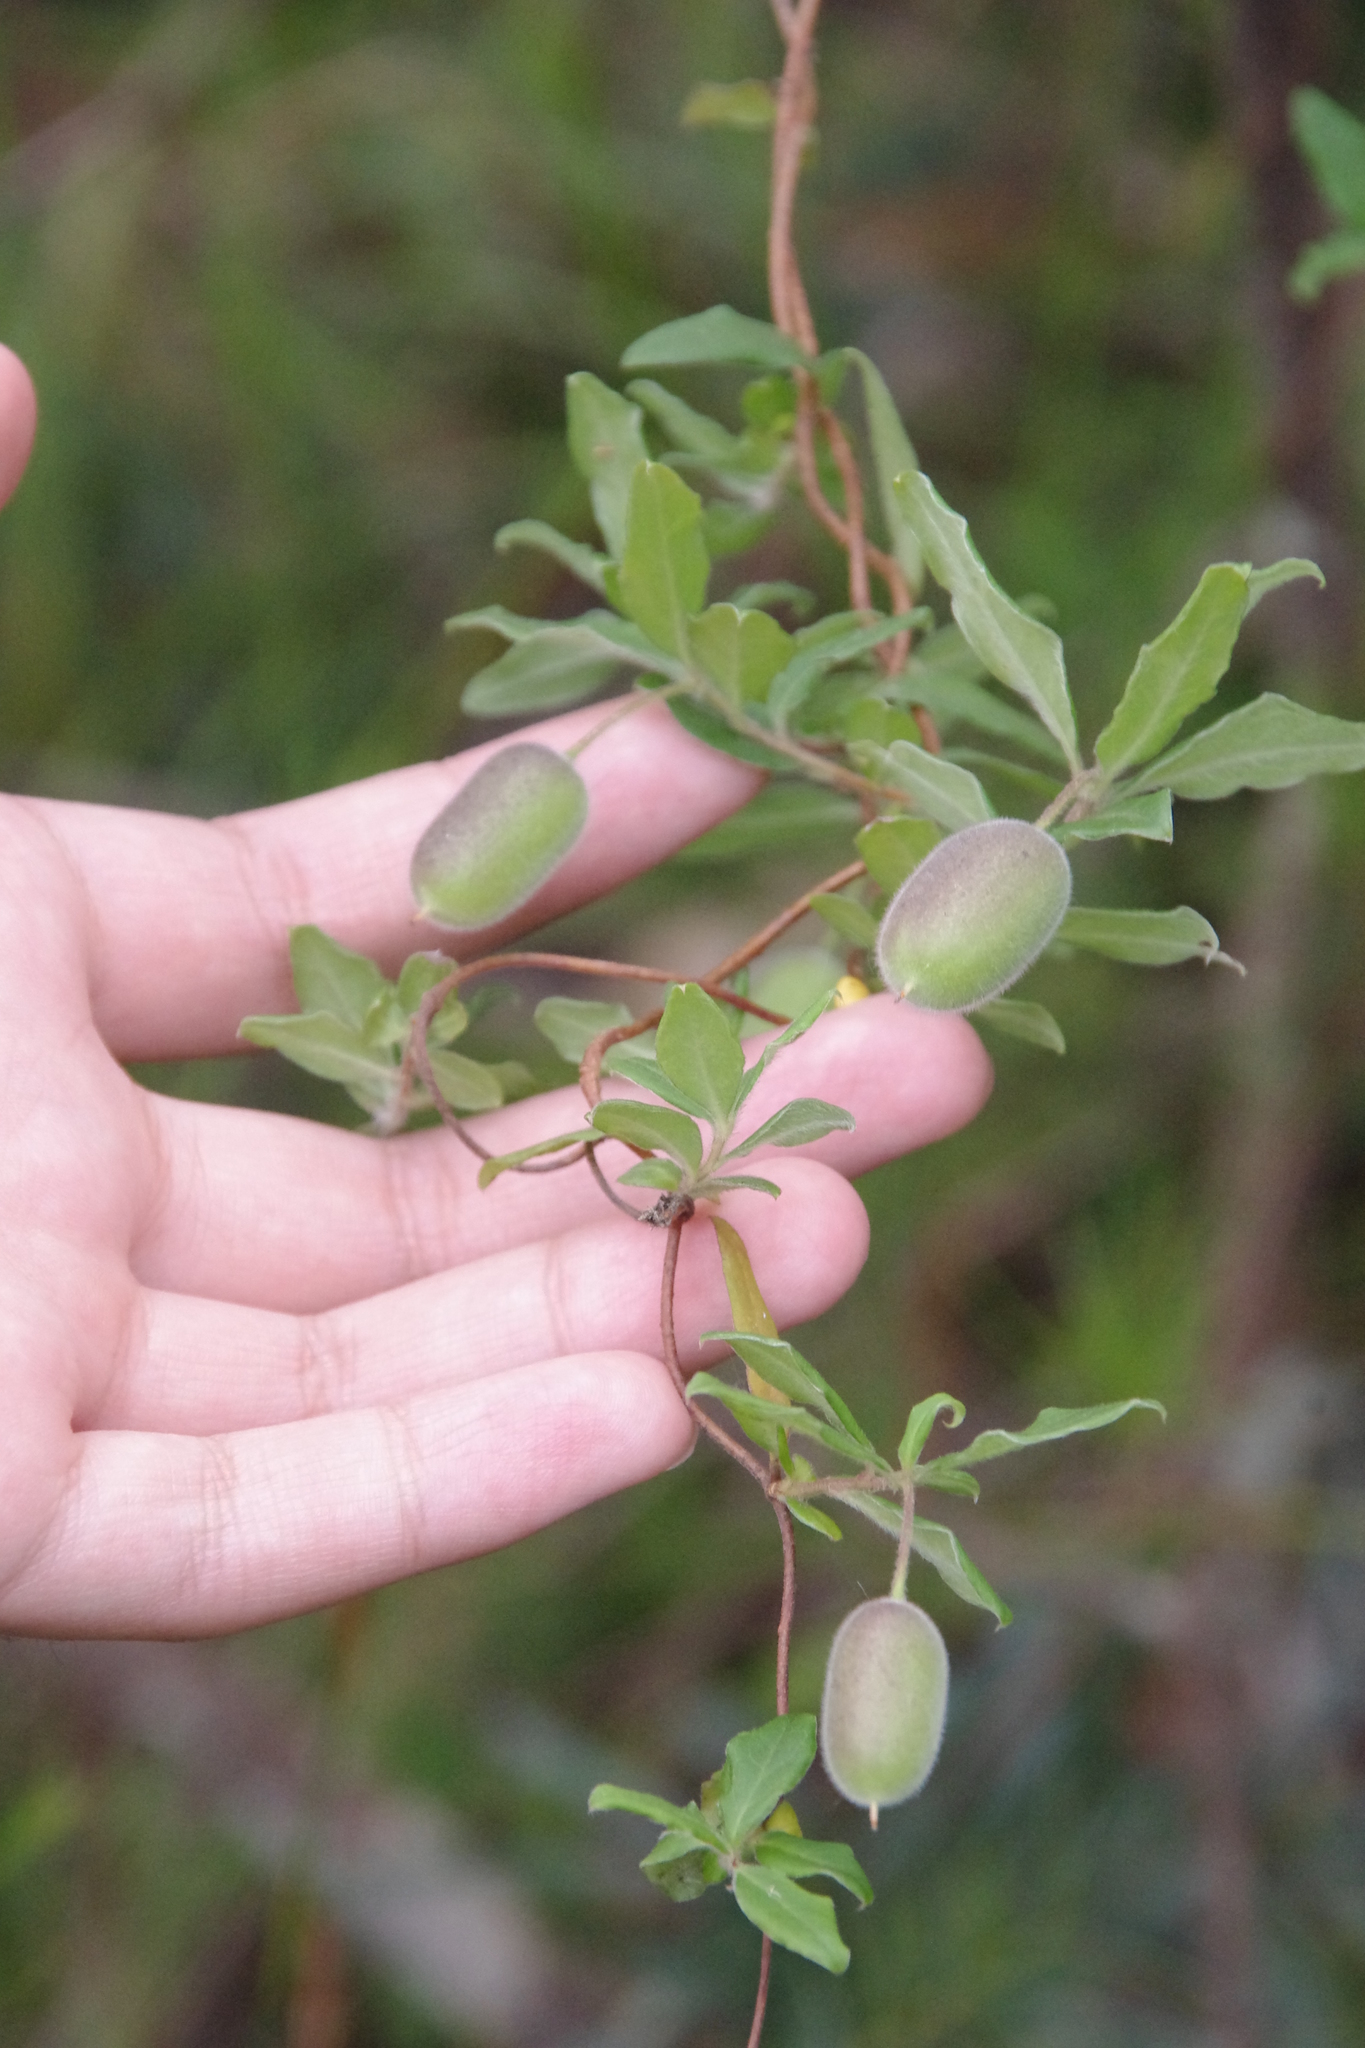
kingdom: Plantae
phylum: Tracheophyta
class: Magnoliopsida
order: Apiales
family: Pittosporaceae
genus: Billardiera
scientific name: Billardiera scandens
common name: Apple-berry
